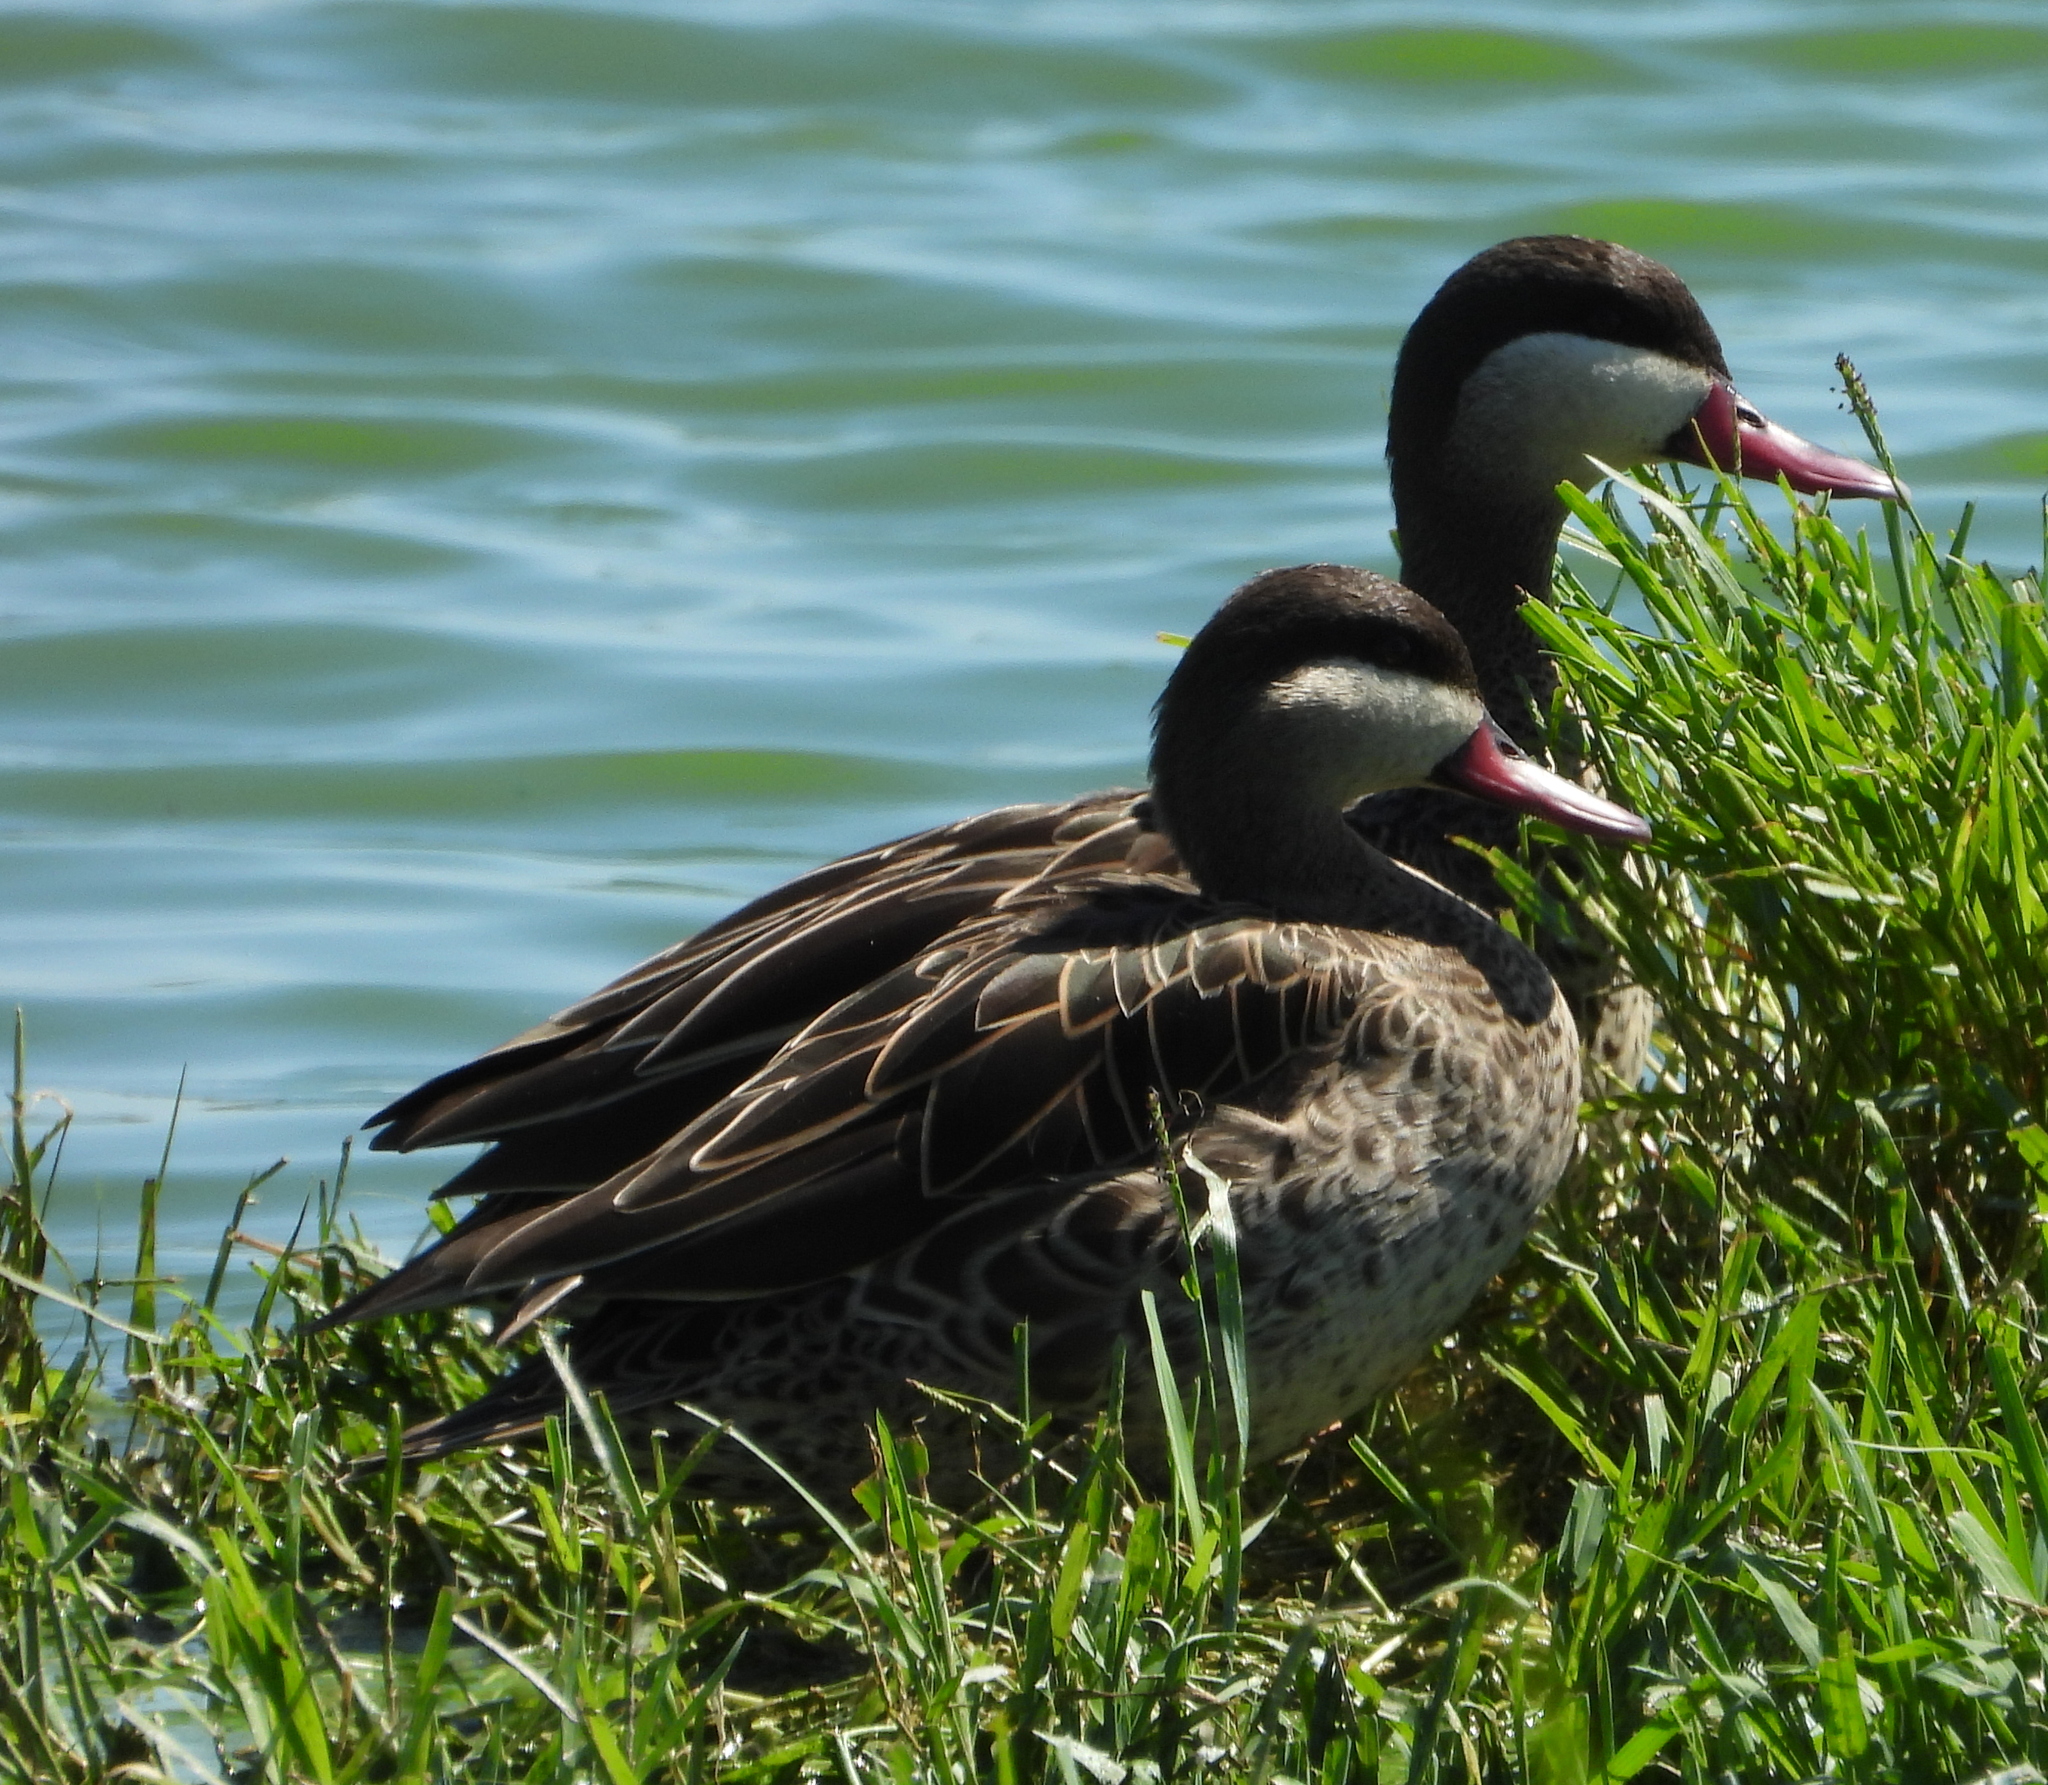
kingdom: Animalia
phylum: Chordata
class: Aves
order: Anseriformes
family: Anatidae
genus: Anas
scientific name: Anas erythrorhyncha
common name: Red-billed teal
